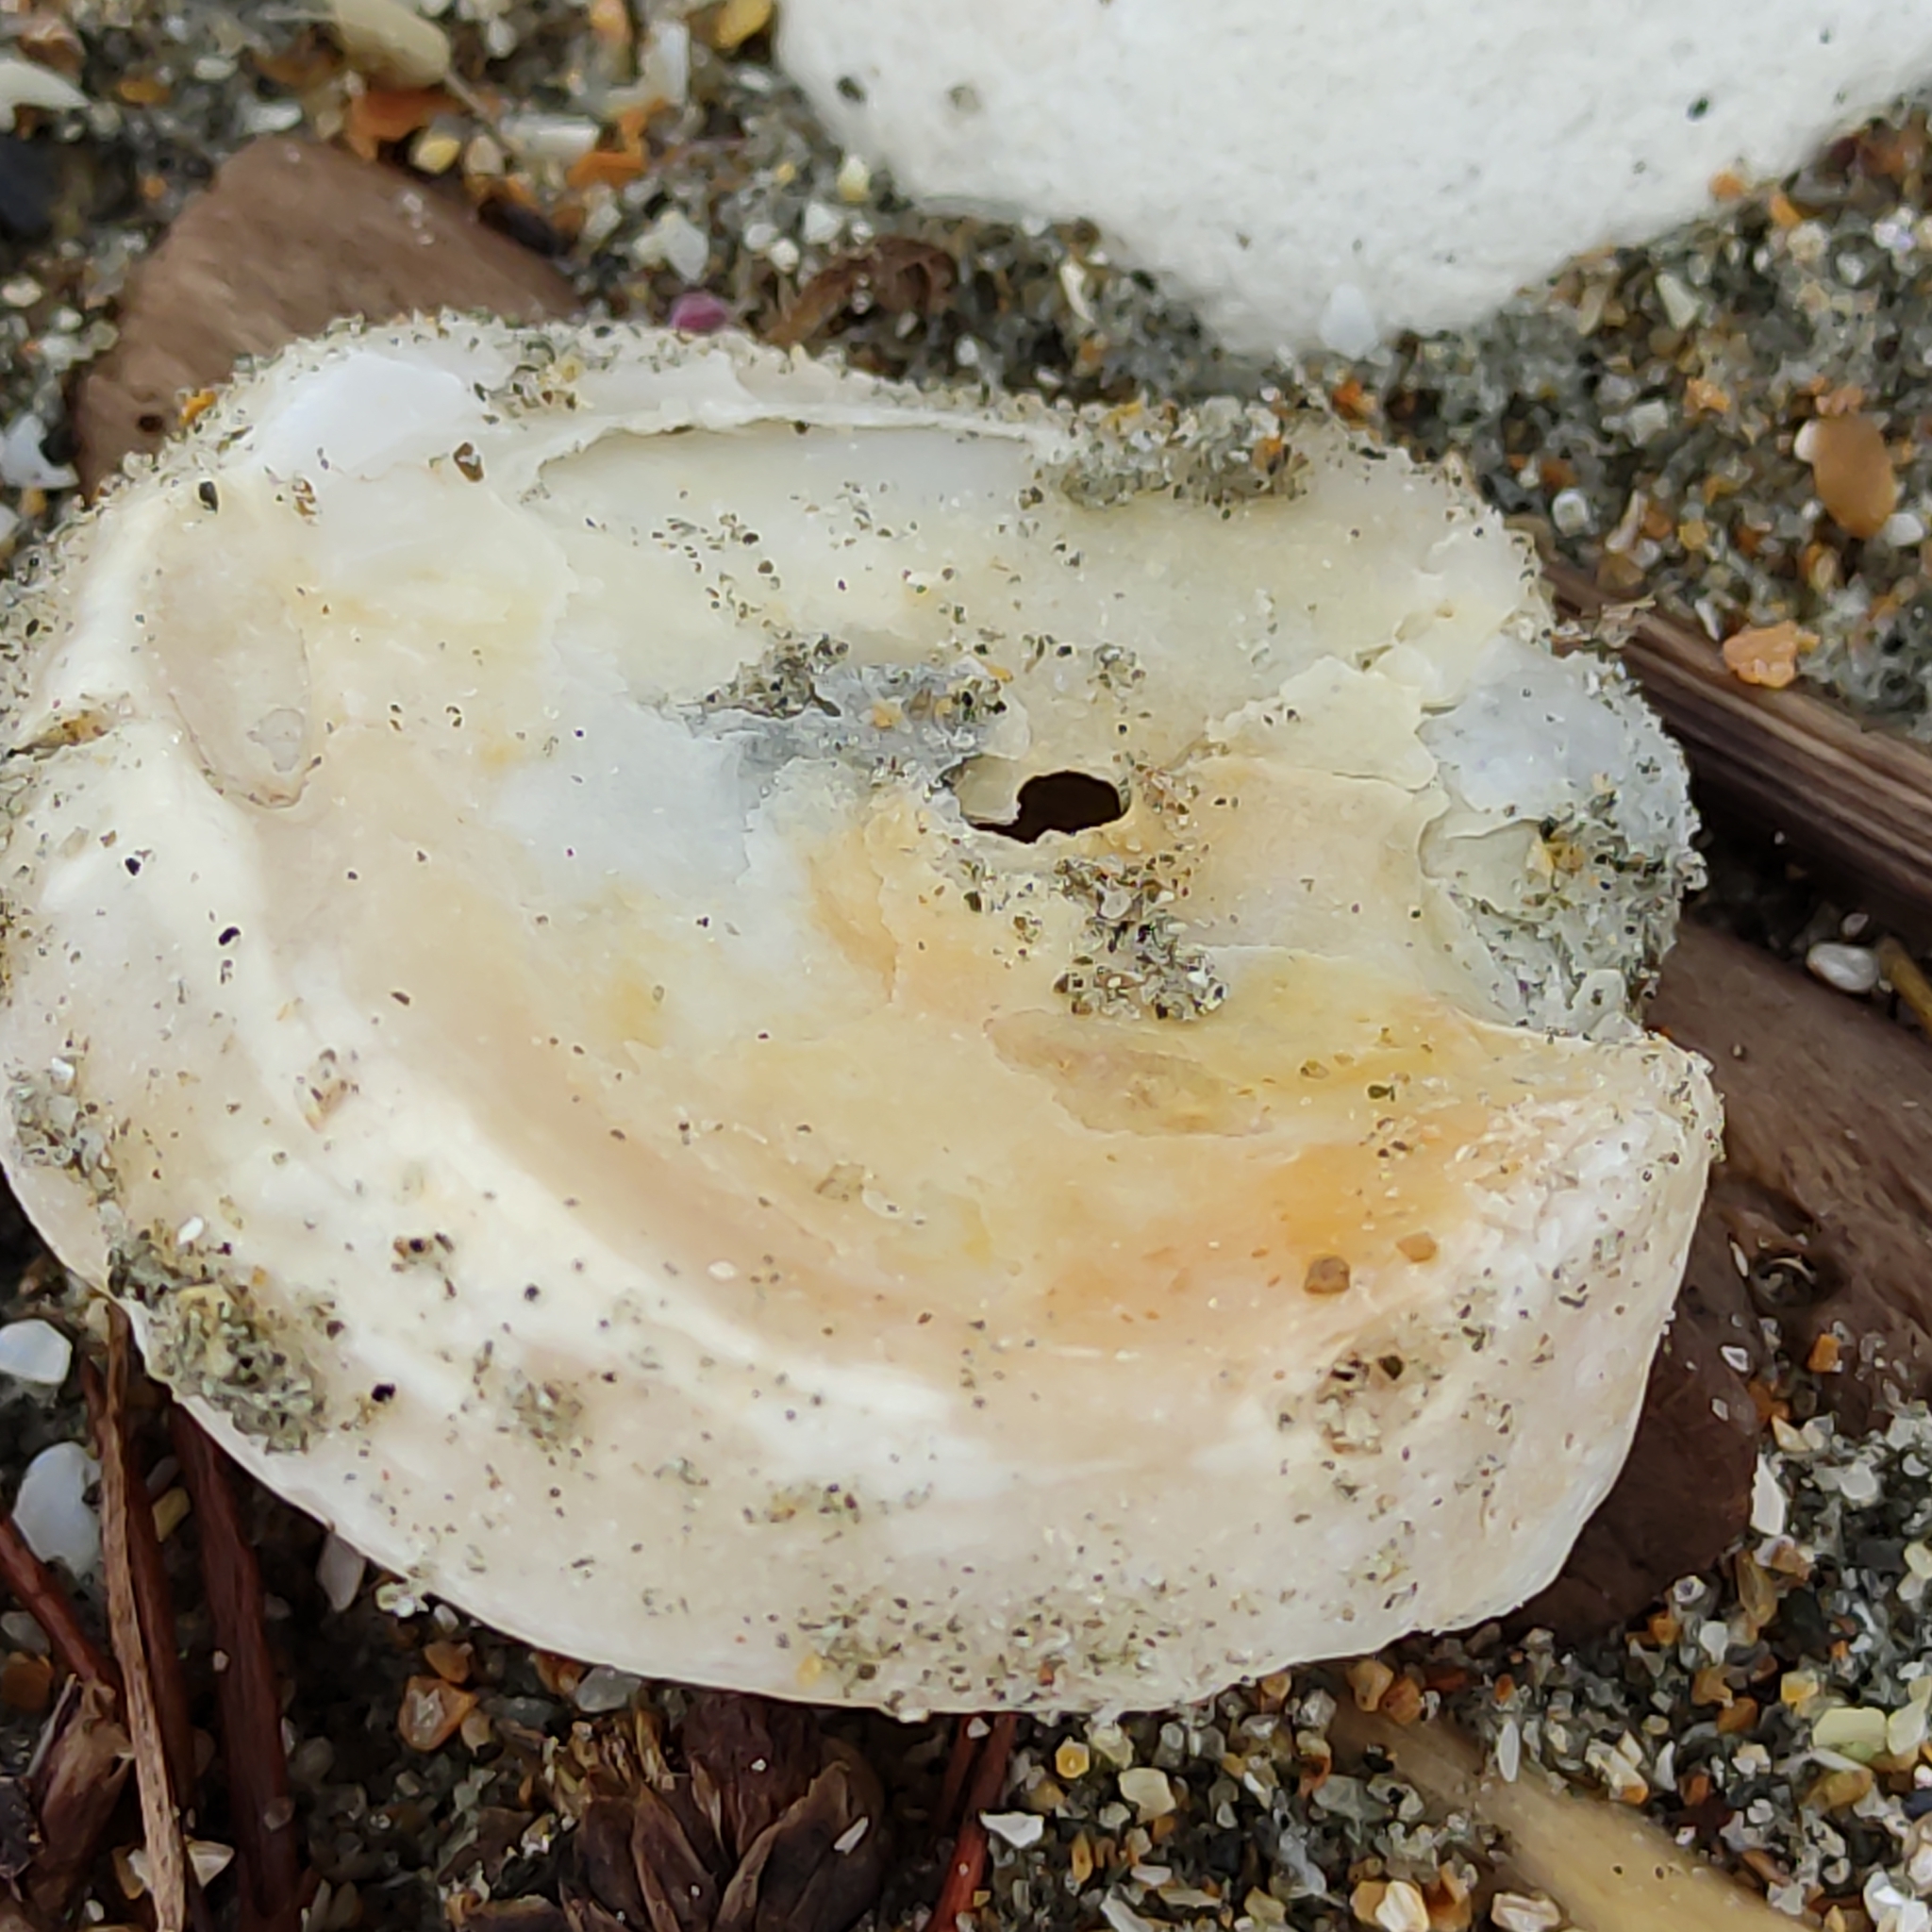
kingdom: Animalia
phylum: Mollusca
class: Bivalvia
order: Ostreida
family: Ostreidae
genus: Ostrea
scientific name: Ostrea chilensis
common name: Chilean oyster
